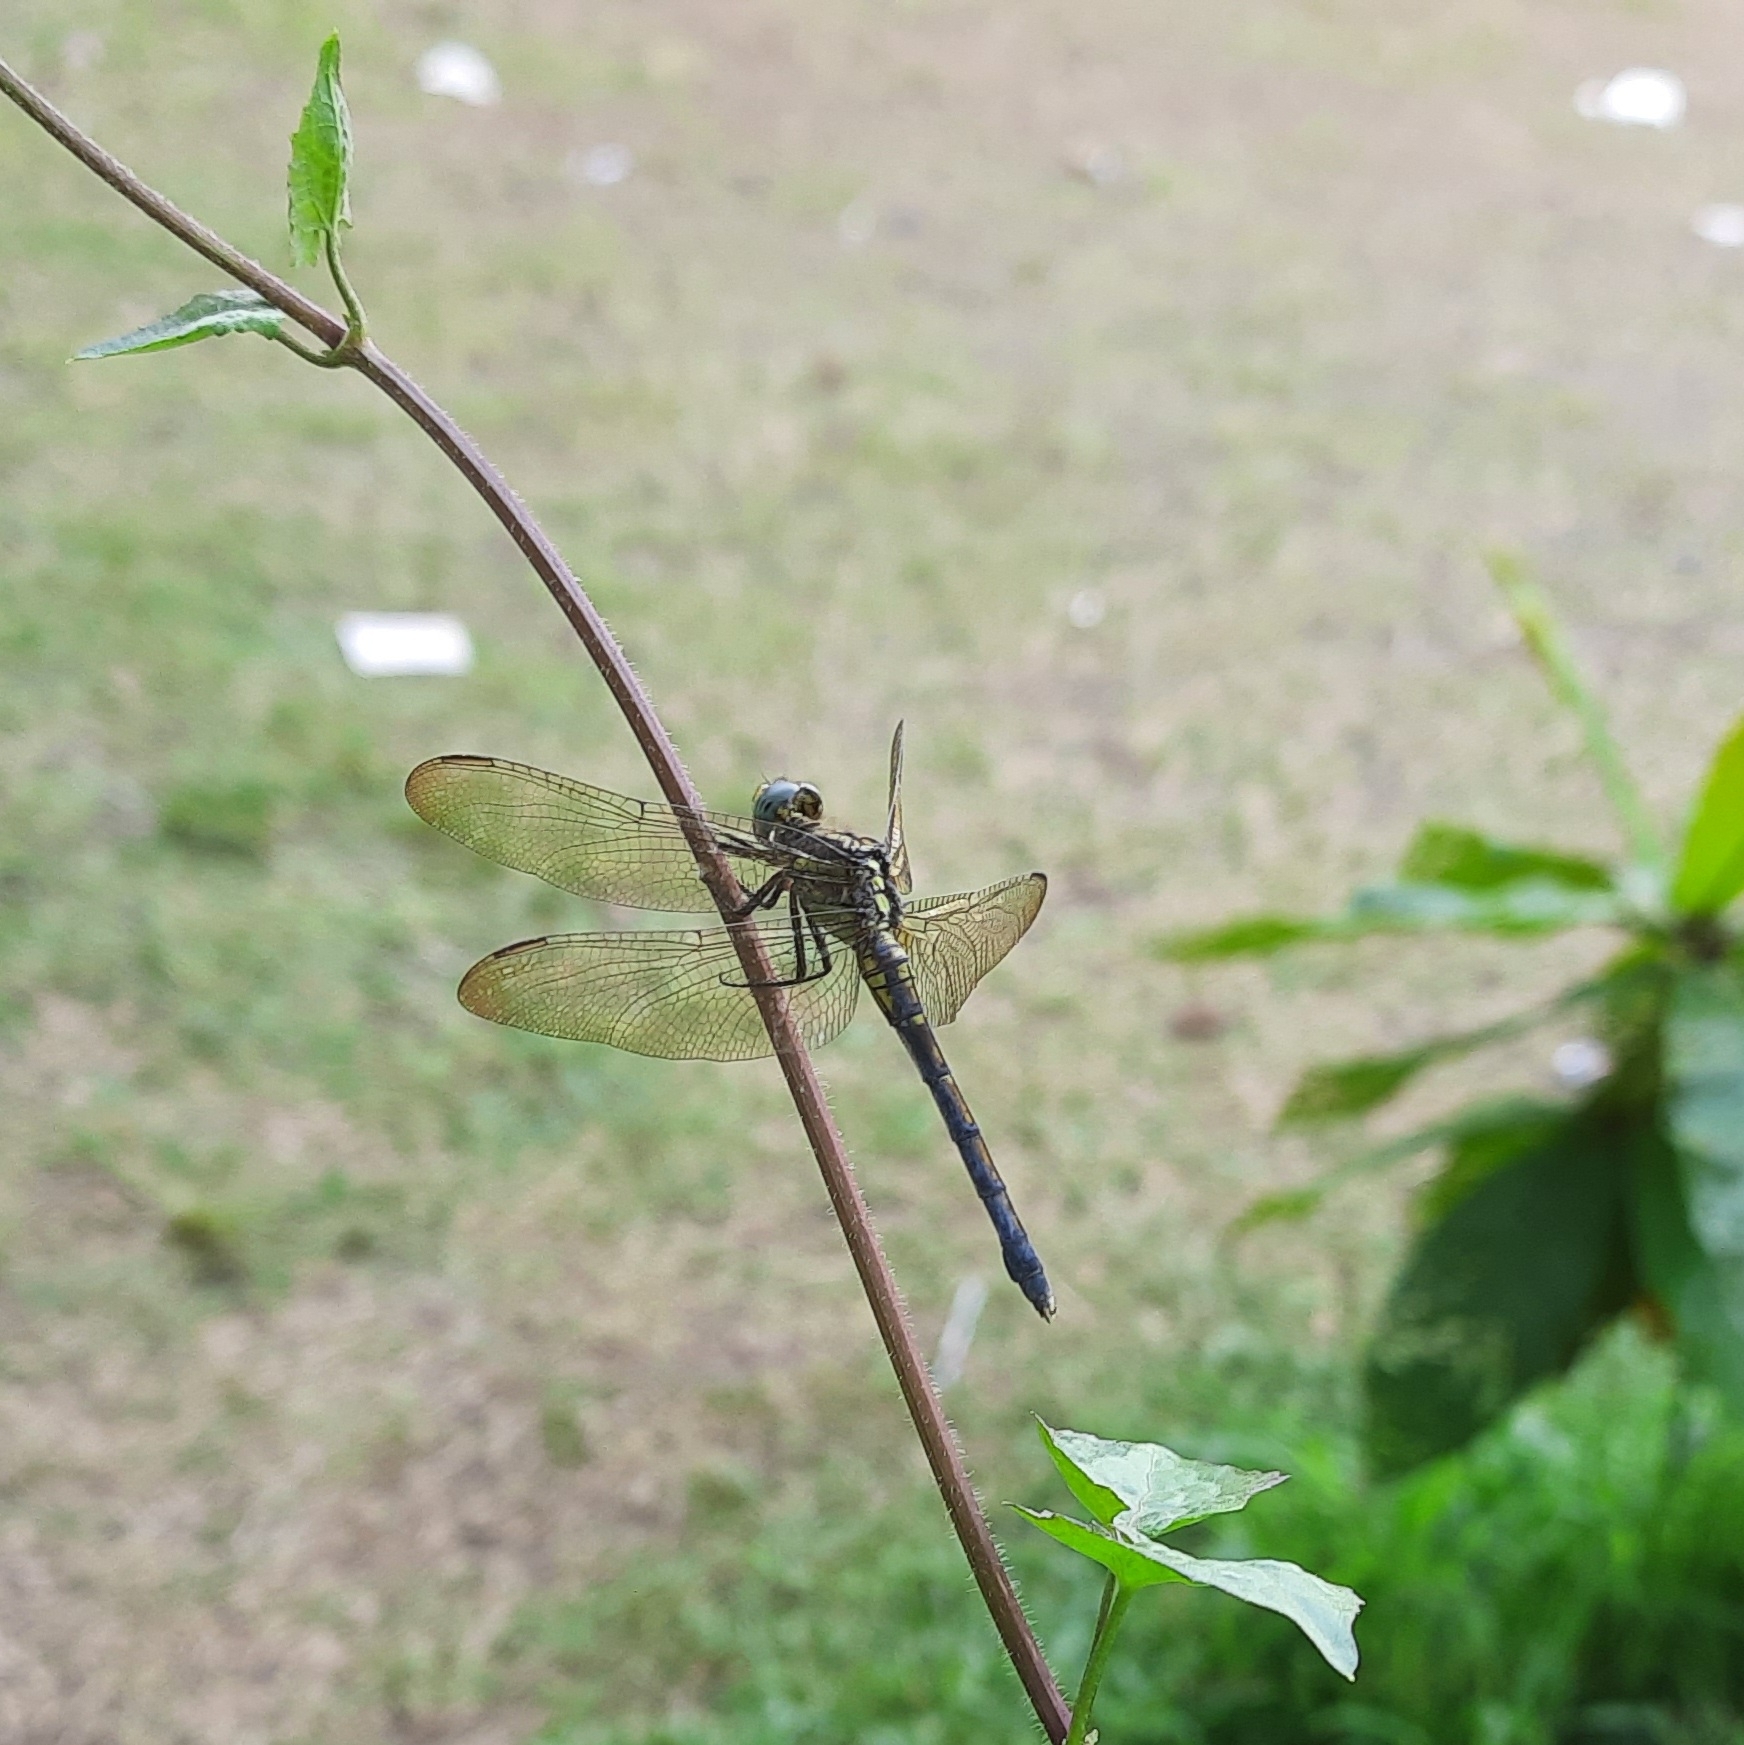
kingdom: Animalia
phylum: Arthropoda
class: Insecta
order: Odonata
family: Libellulidae
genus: Orthetrum
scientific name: Orthetrum luzonicum
